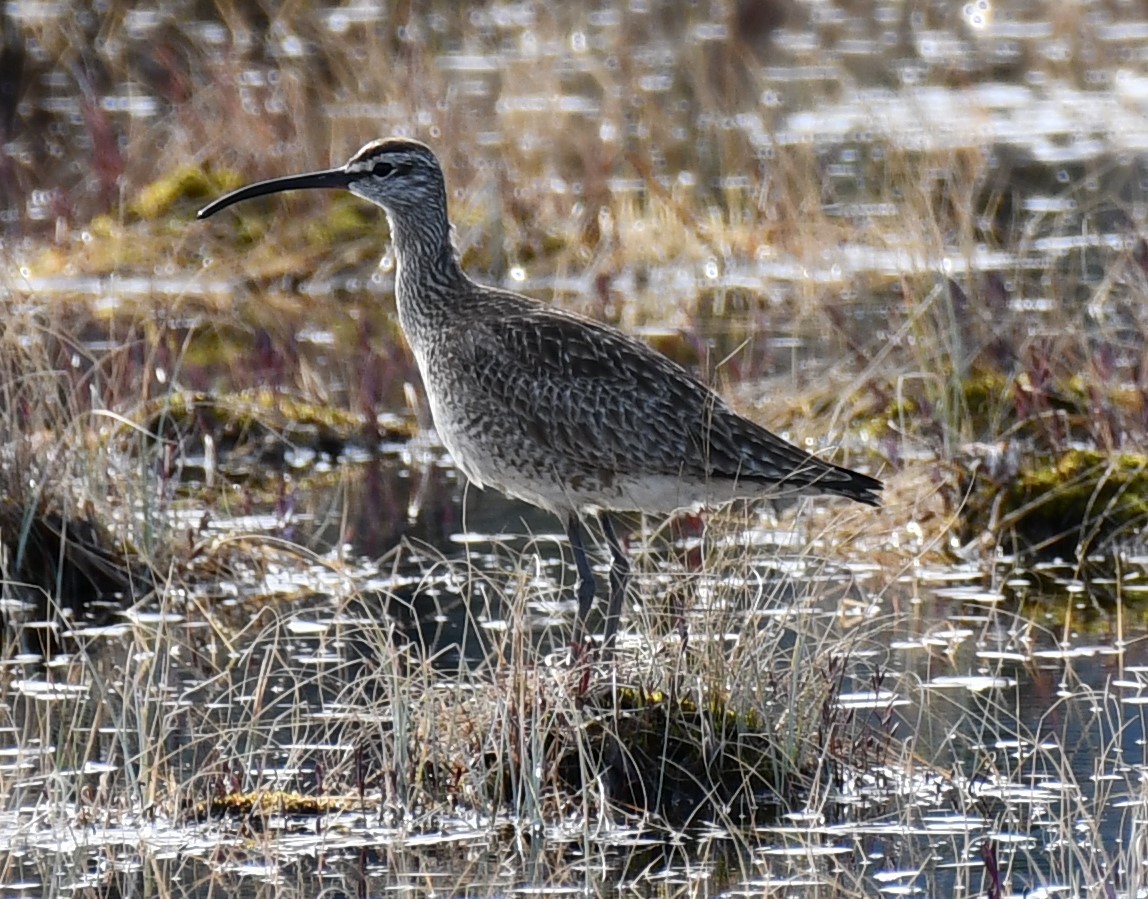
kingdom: Animalia
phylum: Chordata
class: Aves
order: Charadriiformes
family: Scolopacidae
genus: Numenius
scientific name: Numenius phaeopus
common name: Whimbrel
